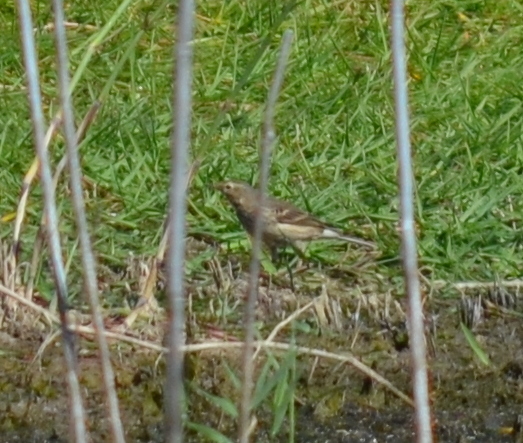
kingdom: Animalia
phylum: Chordata
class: Aves
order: Passeriformes
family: Motacillidae
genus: Anthus
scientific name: Anthus rubescens
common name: Buff-bellied pipit
